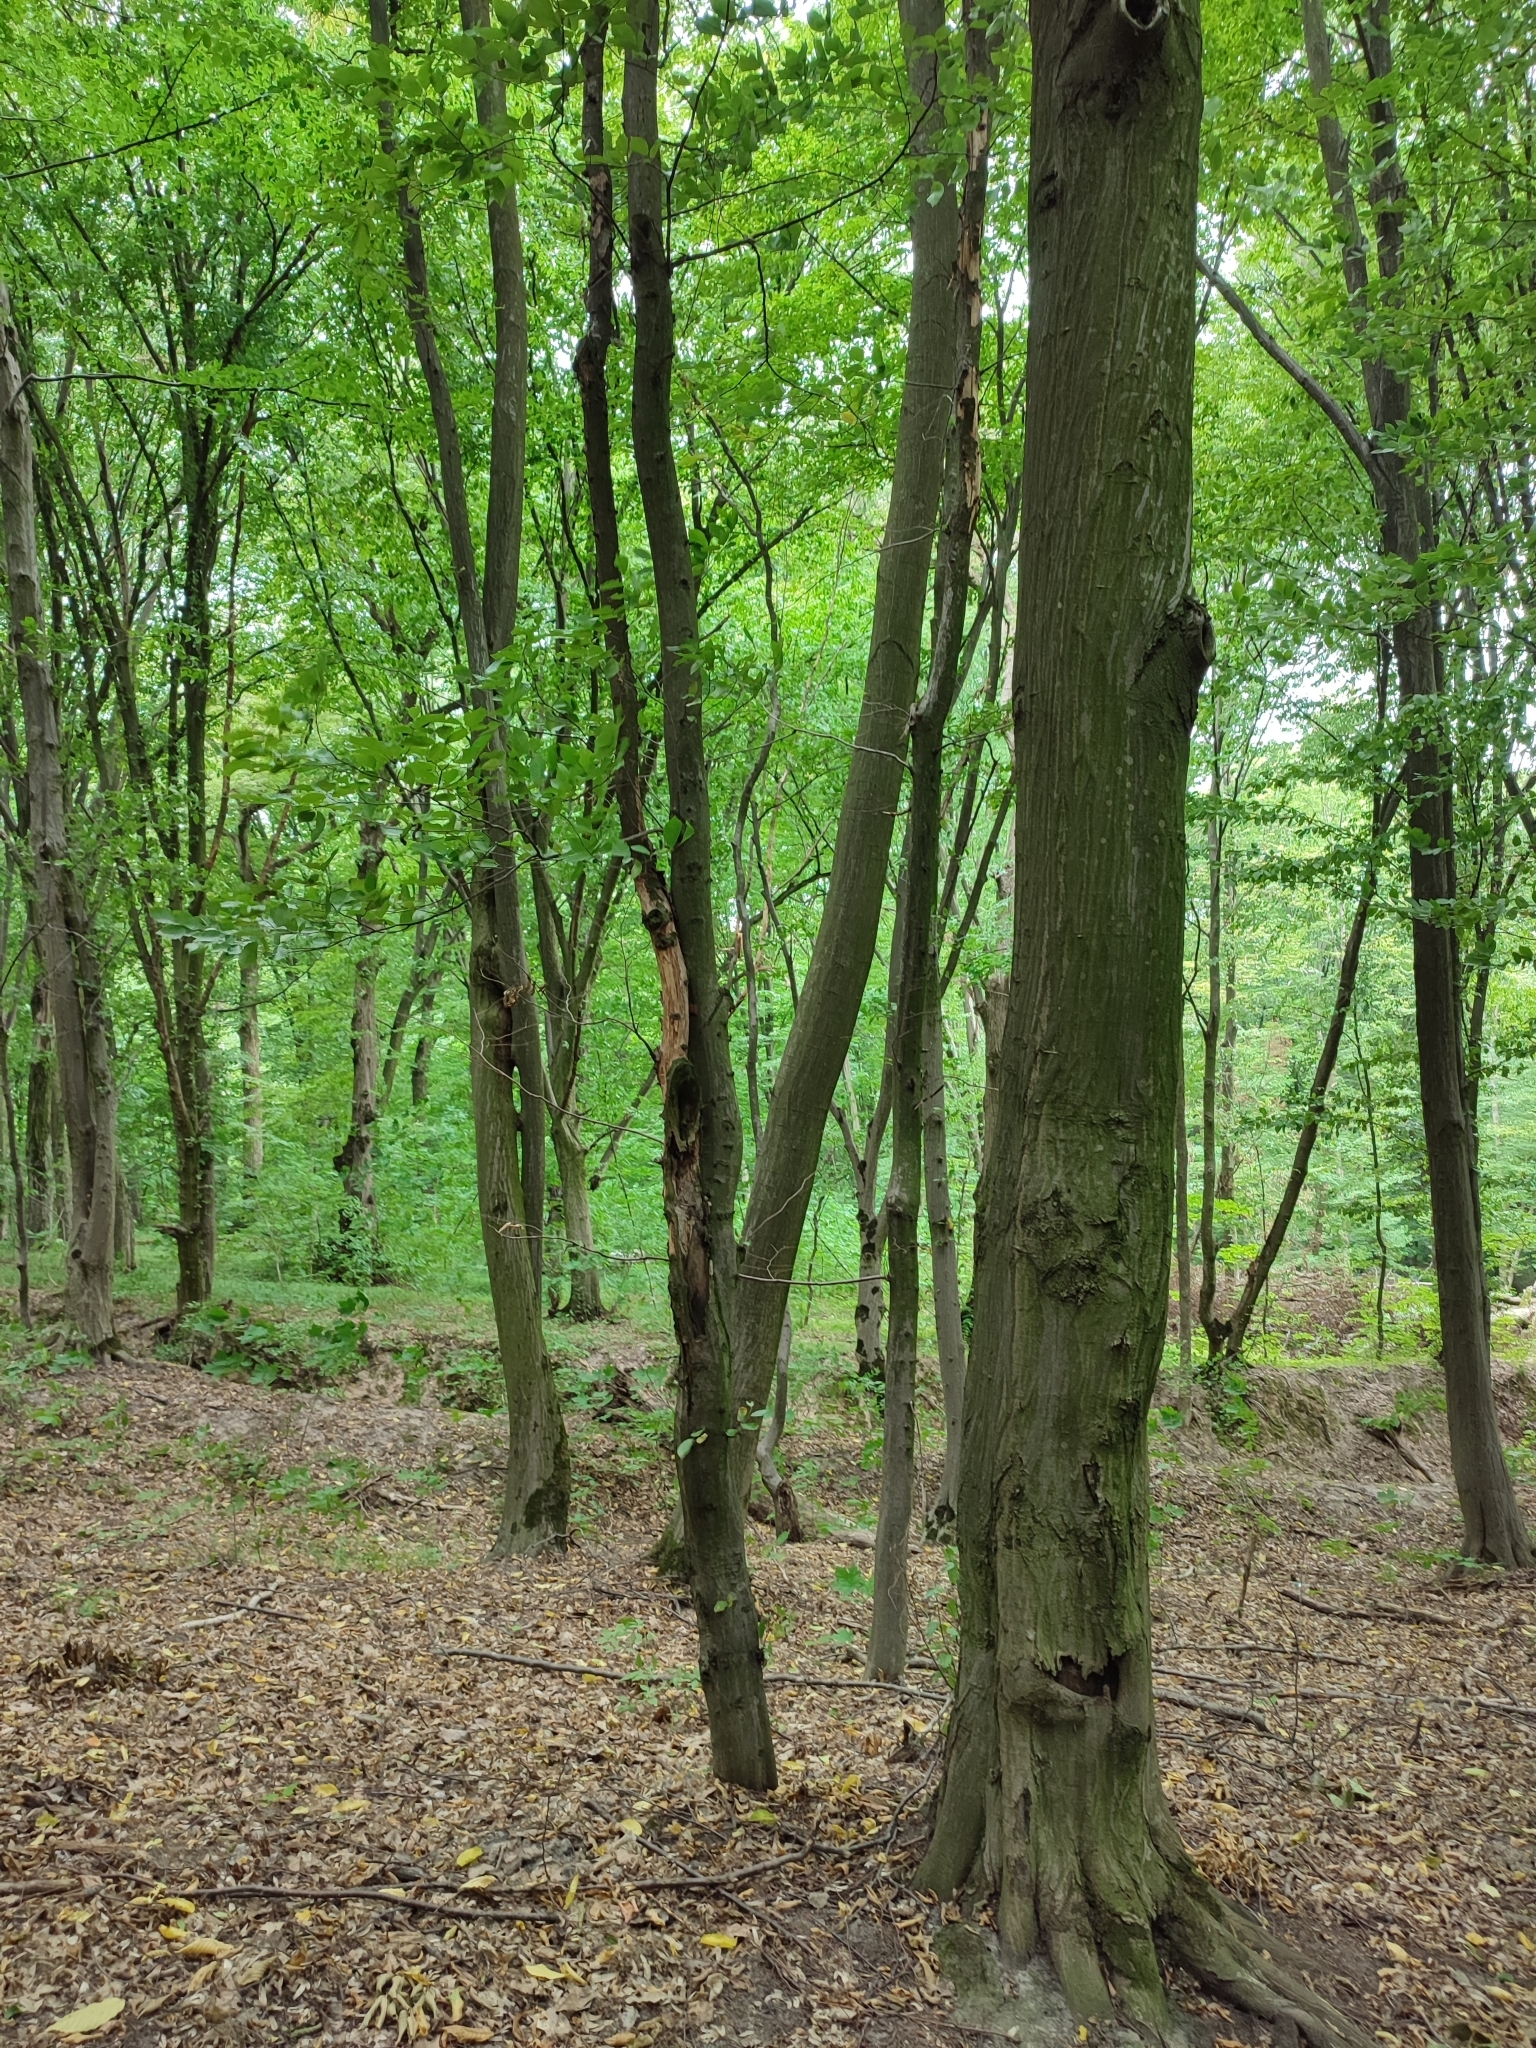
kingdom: Plantae
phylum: Tracheophyta
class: Magnoliopsida
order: Fagales
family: Betulaceae
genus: Carpinus
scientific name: Carpinus betulus
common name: Hornbeam
